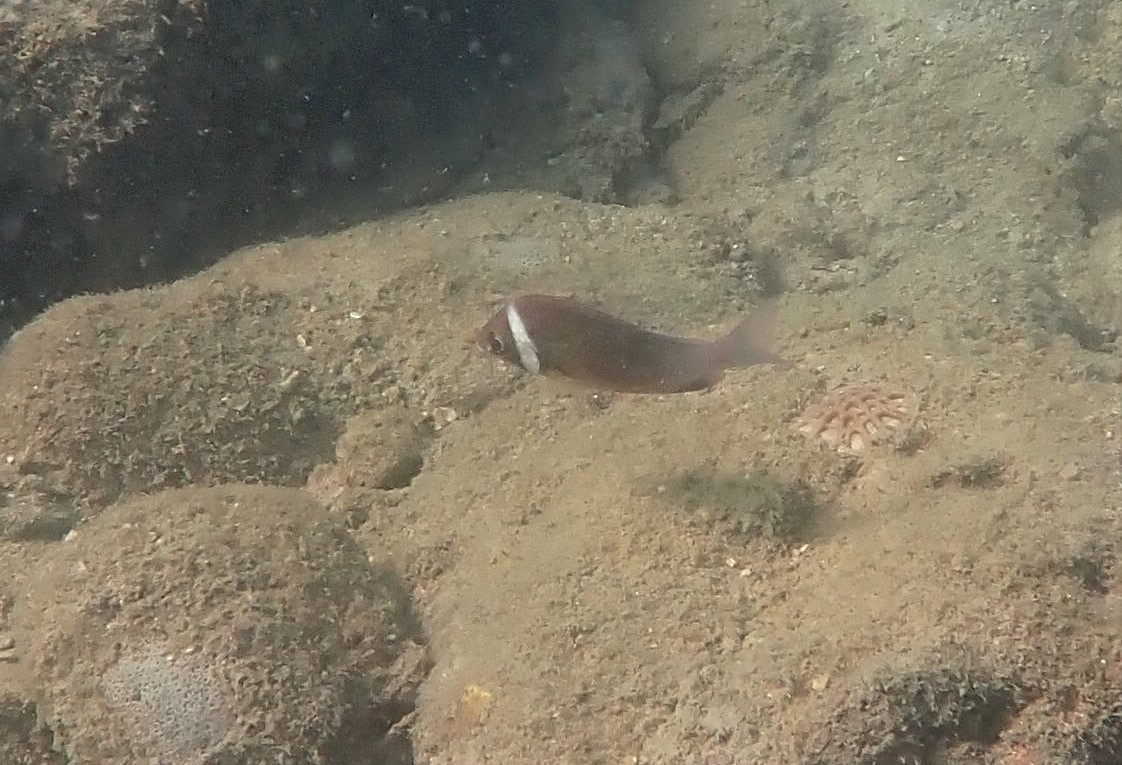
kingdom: Animalia
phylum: Chordata
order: Perciformes
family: Nemipteridae
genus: Scolopsis
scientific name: Scolopsis vosmeri
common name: Whitecheek monocle bream
